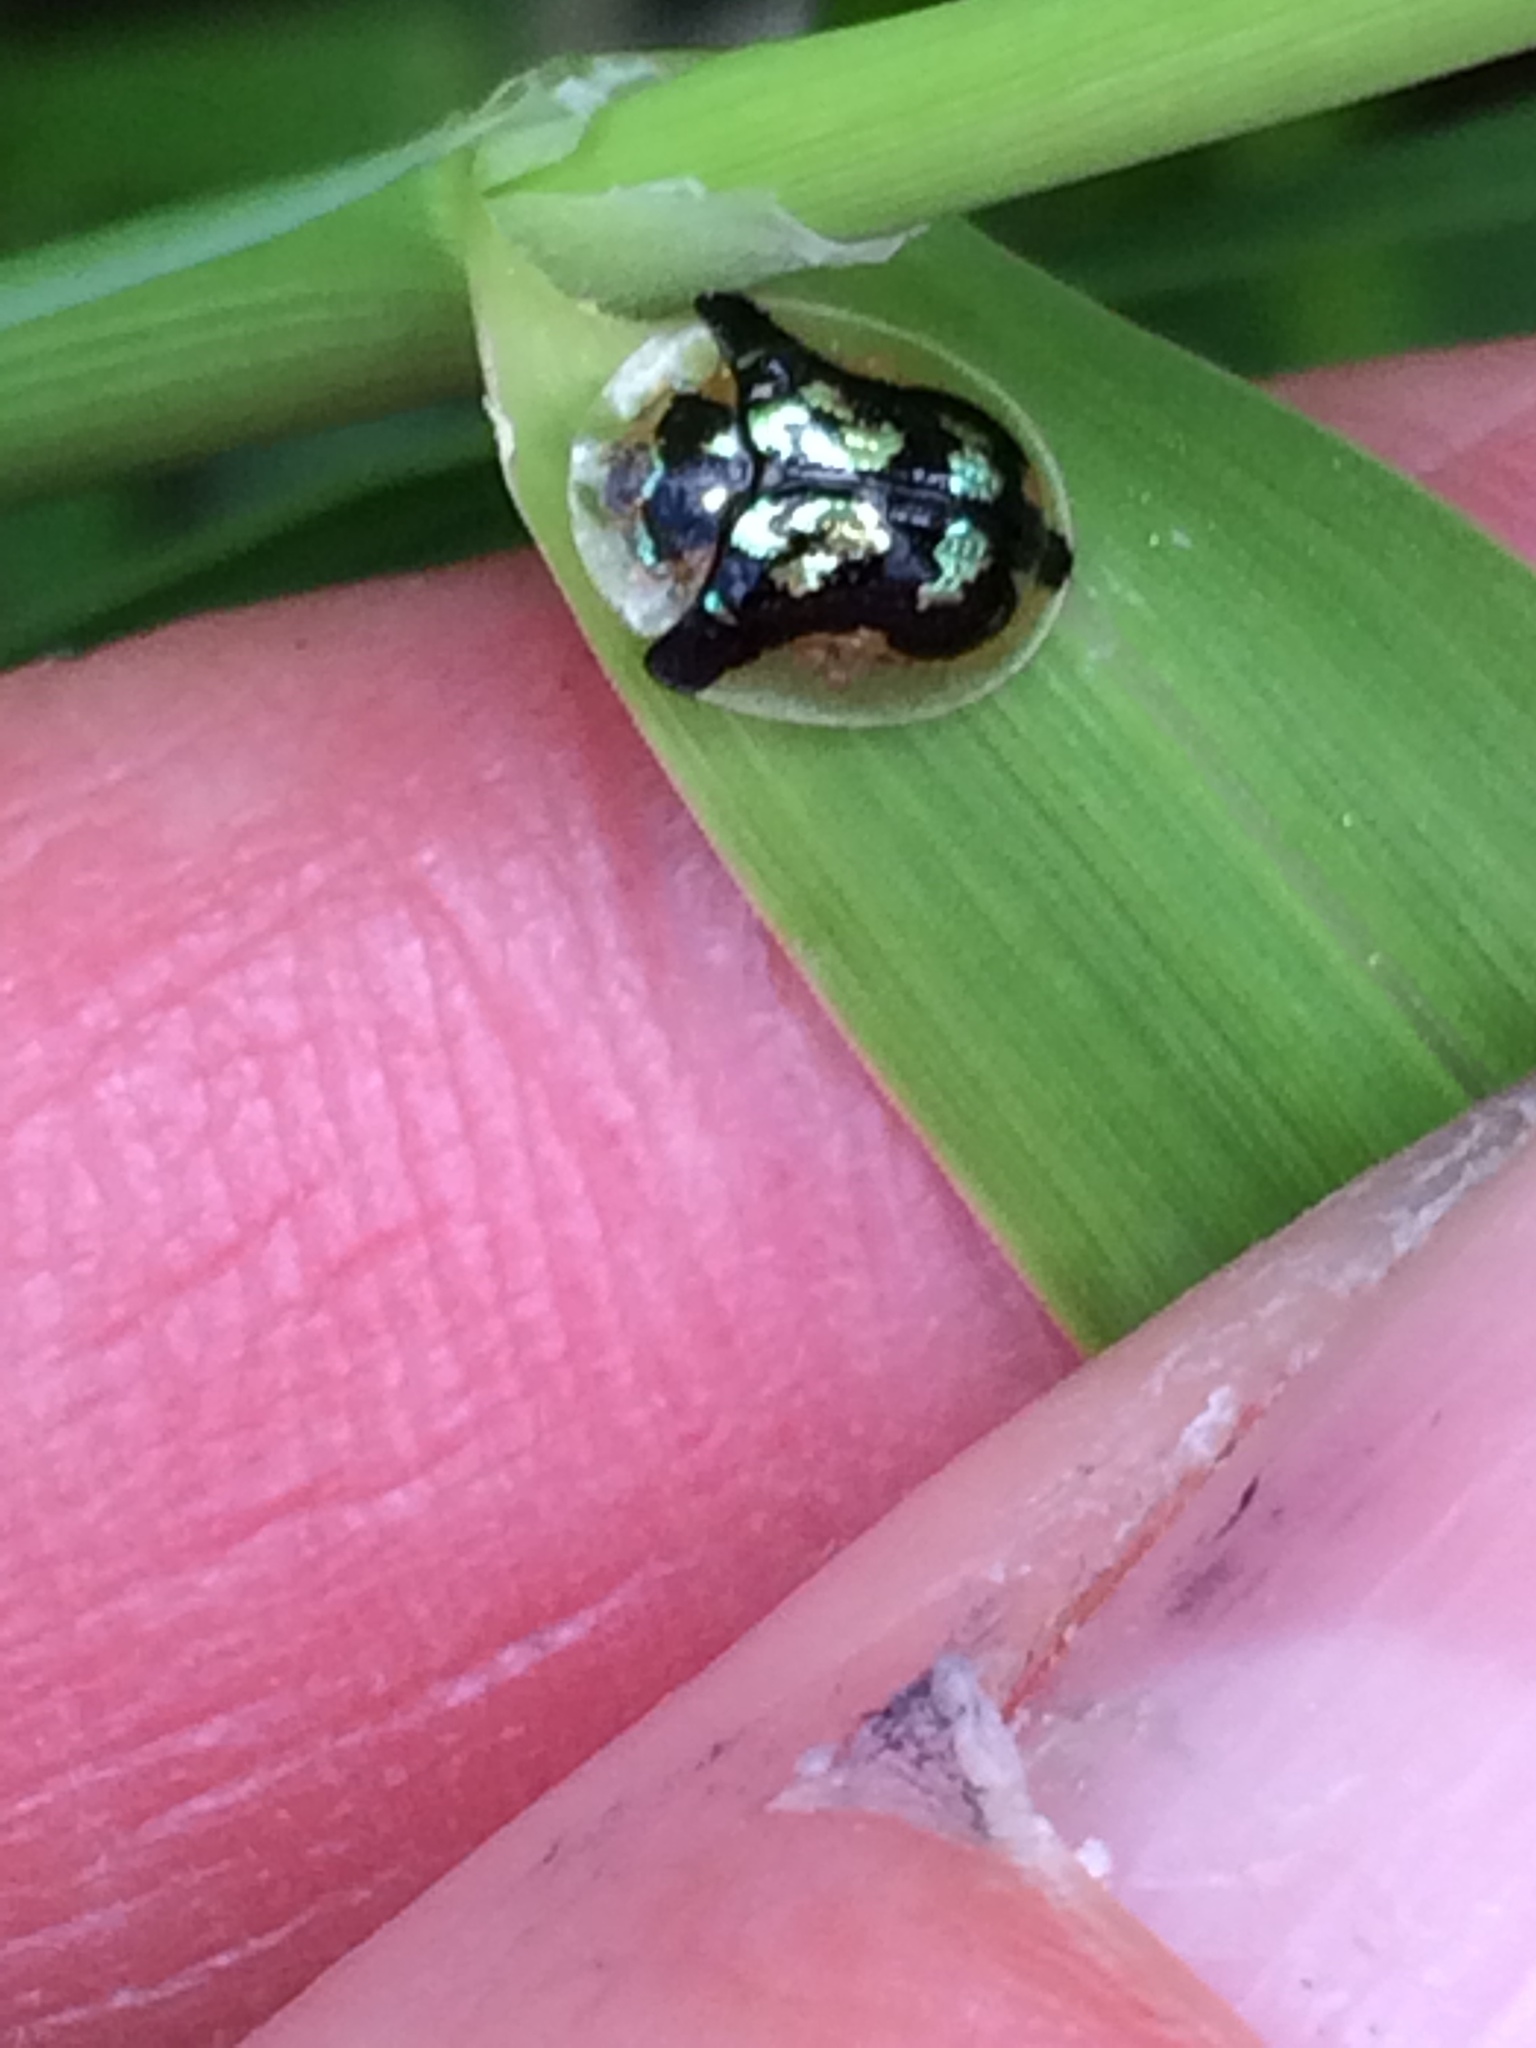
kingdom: Animalia
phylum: Arthropoda
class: Insecta
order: Coleoptera
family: Chrysomelidae
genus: Deloyala
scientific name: Deloyala guttata
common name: Mottled tortoise beetle
